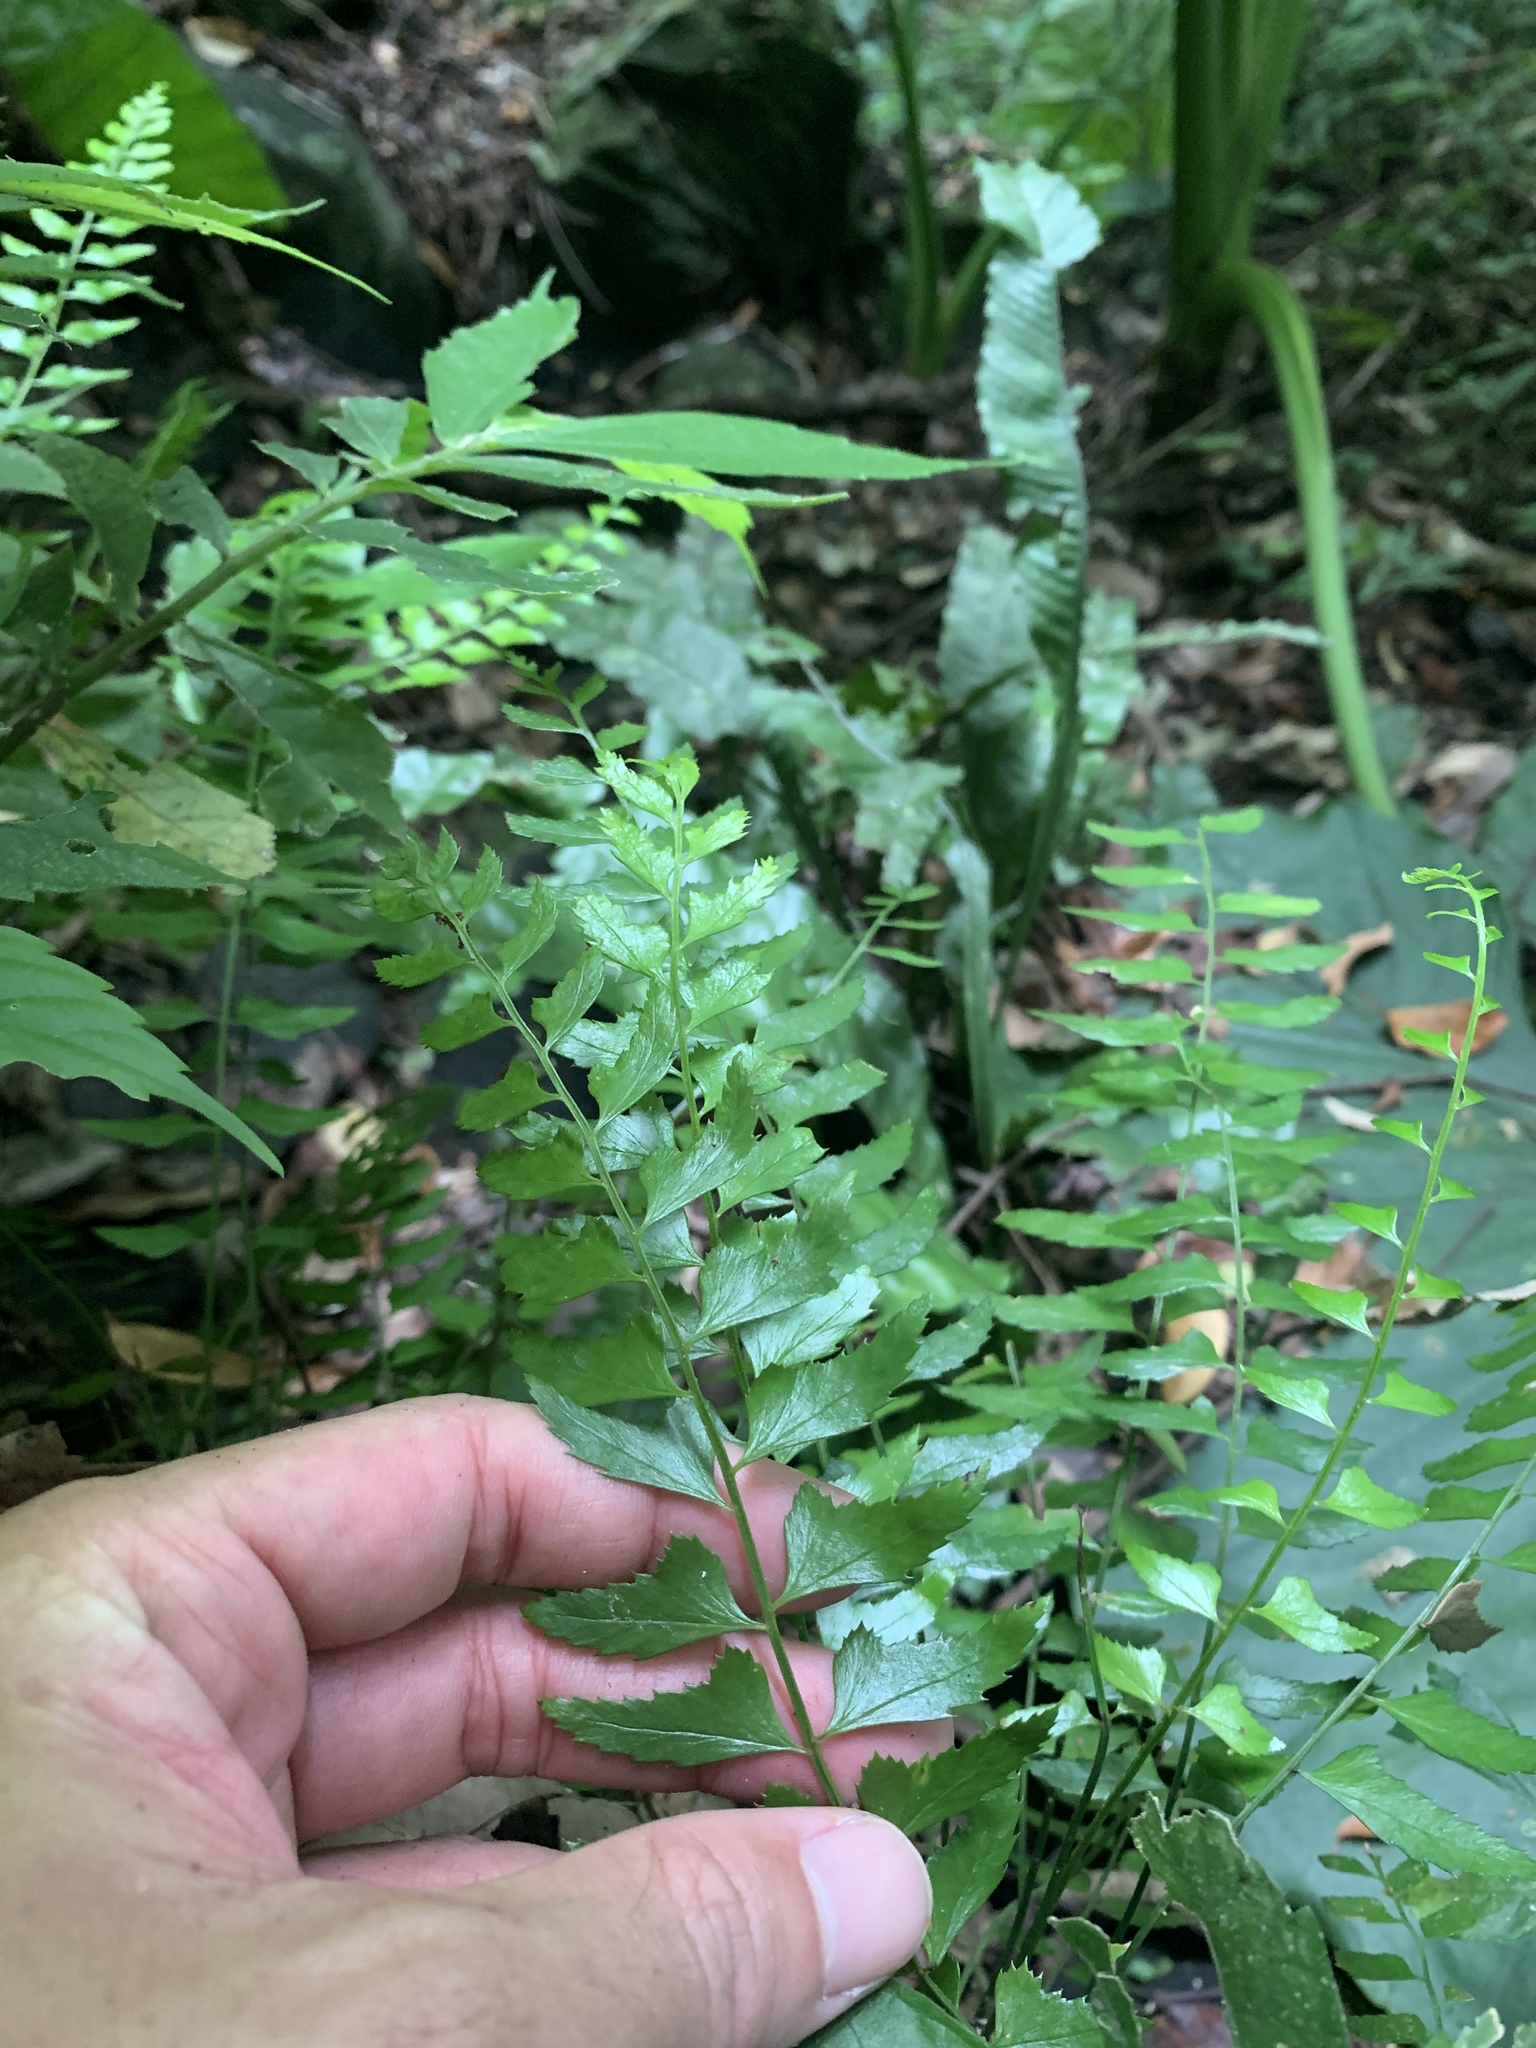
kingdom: Plantae
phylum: Tracheophyta
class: Polypodiopsida
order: Polypodiales
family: Dryopteridaceae
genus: Polystichum
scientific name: Polystichum formosanum
